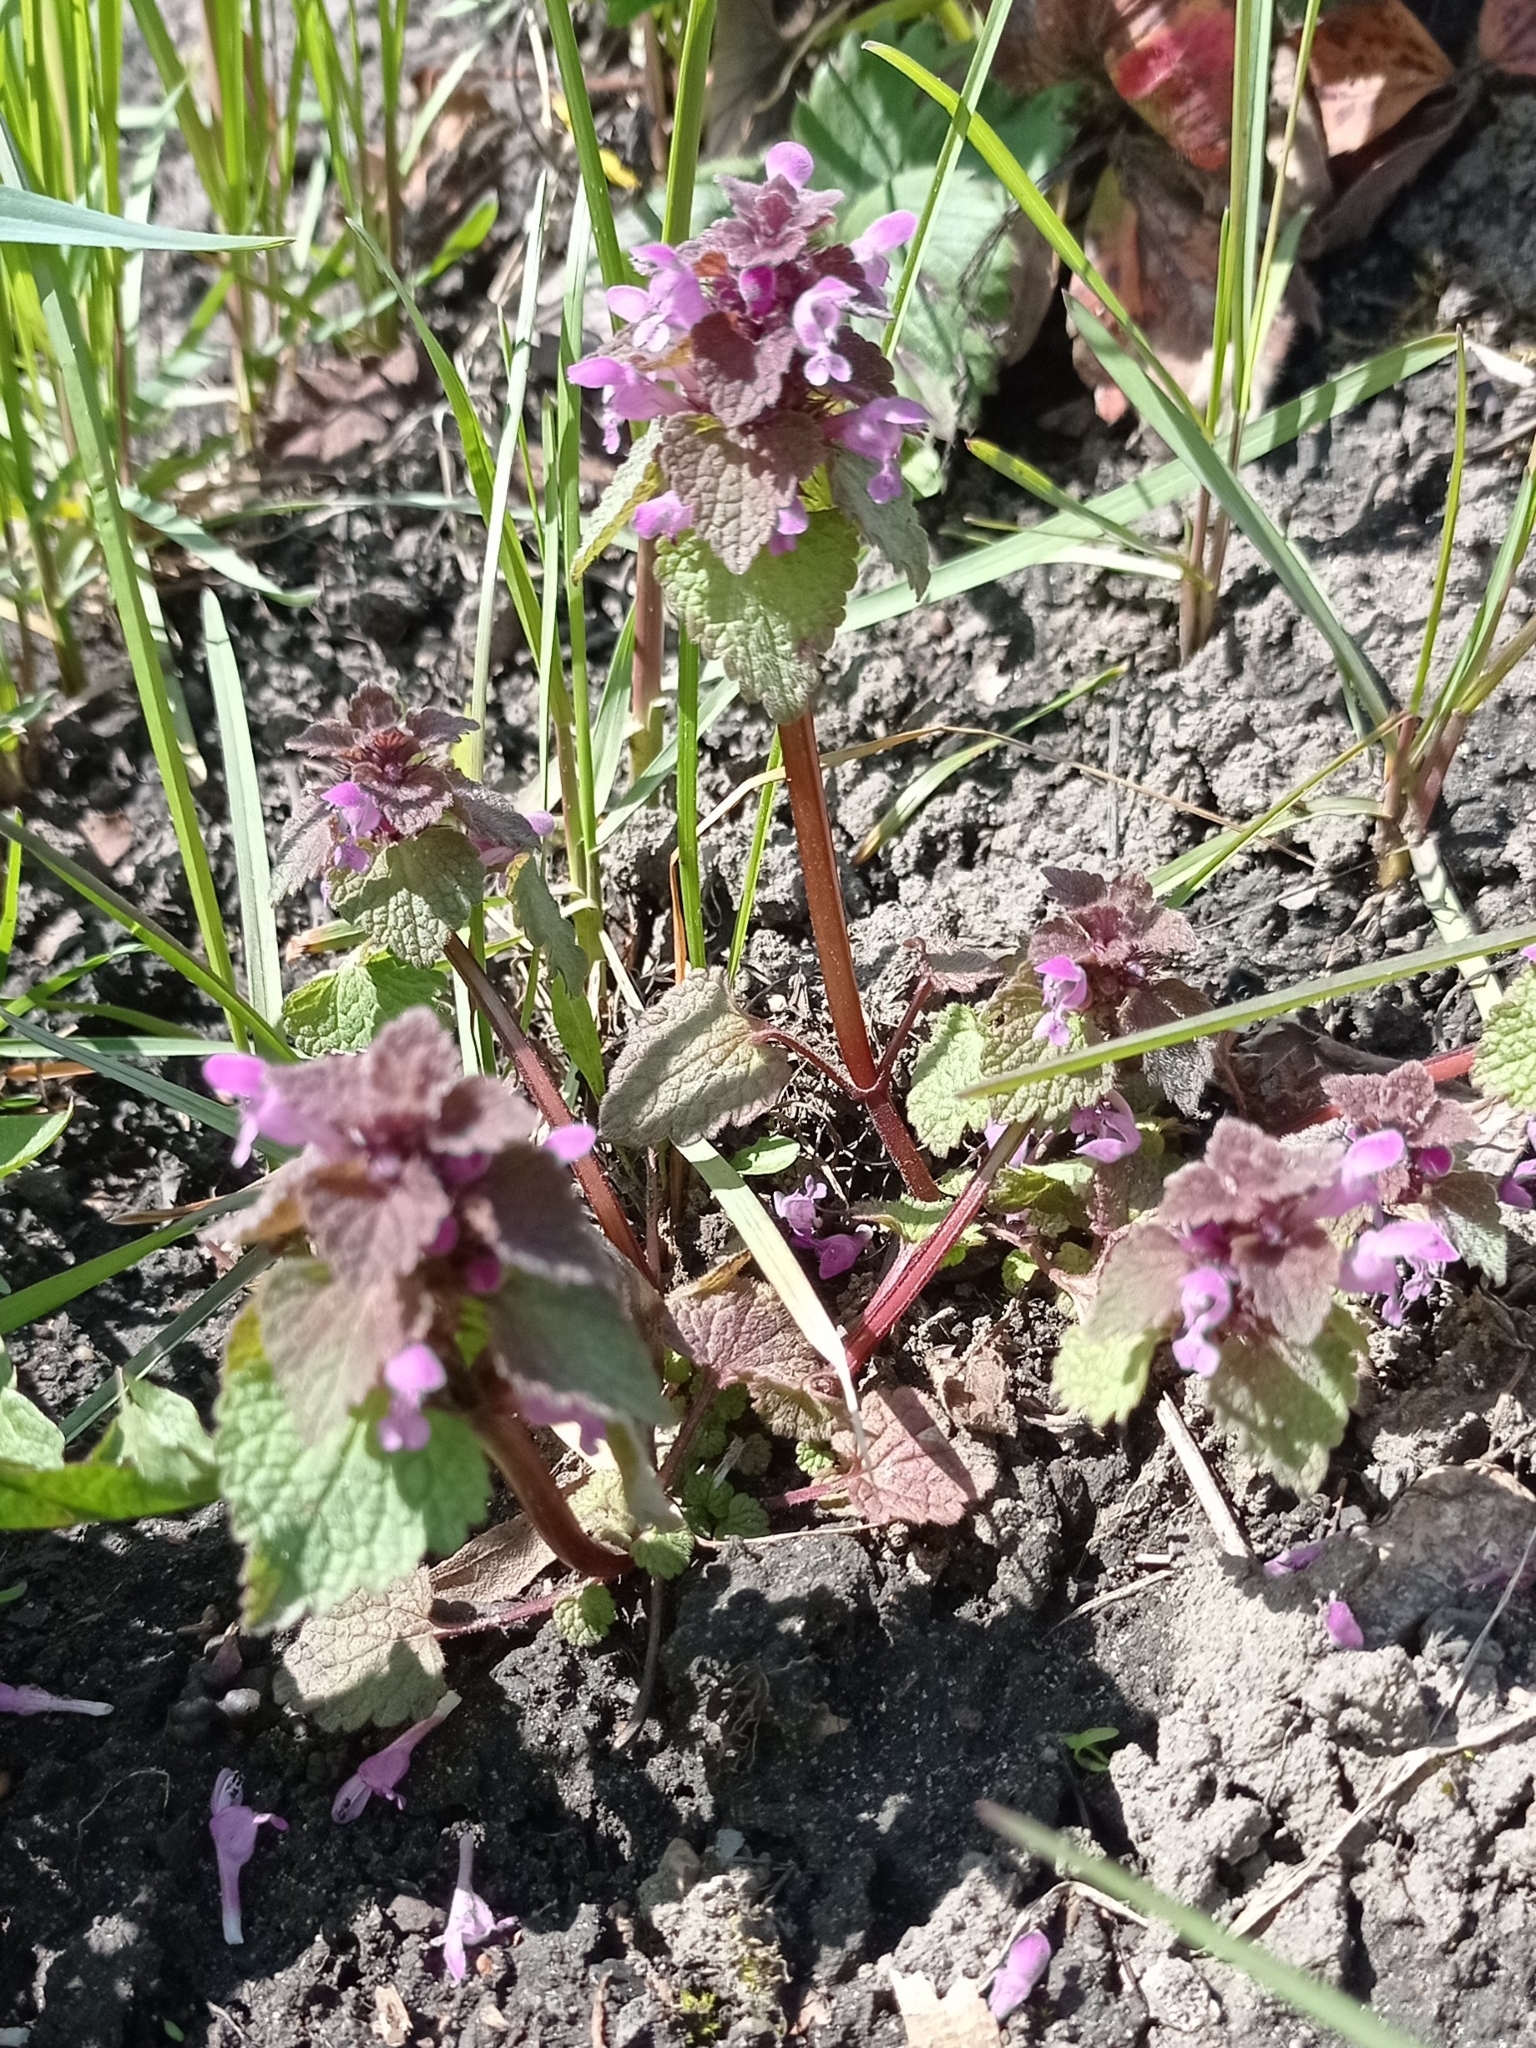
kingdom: Plantae
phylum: Tracheophyta
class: Magnoliopsida
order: Lamiales
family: Lamiaceae
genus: Lamium
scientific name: Lamium purpureum
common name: Red dead-nettle
